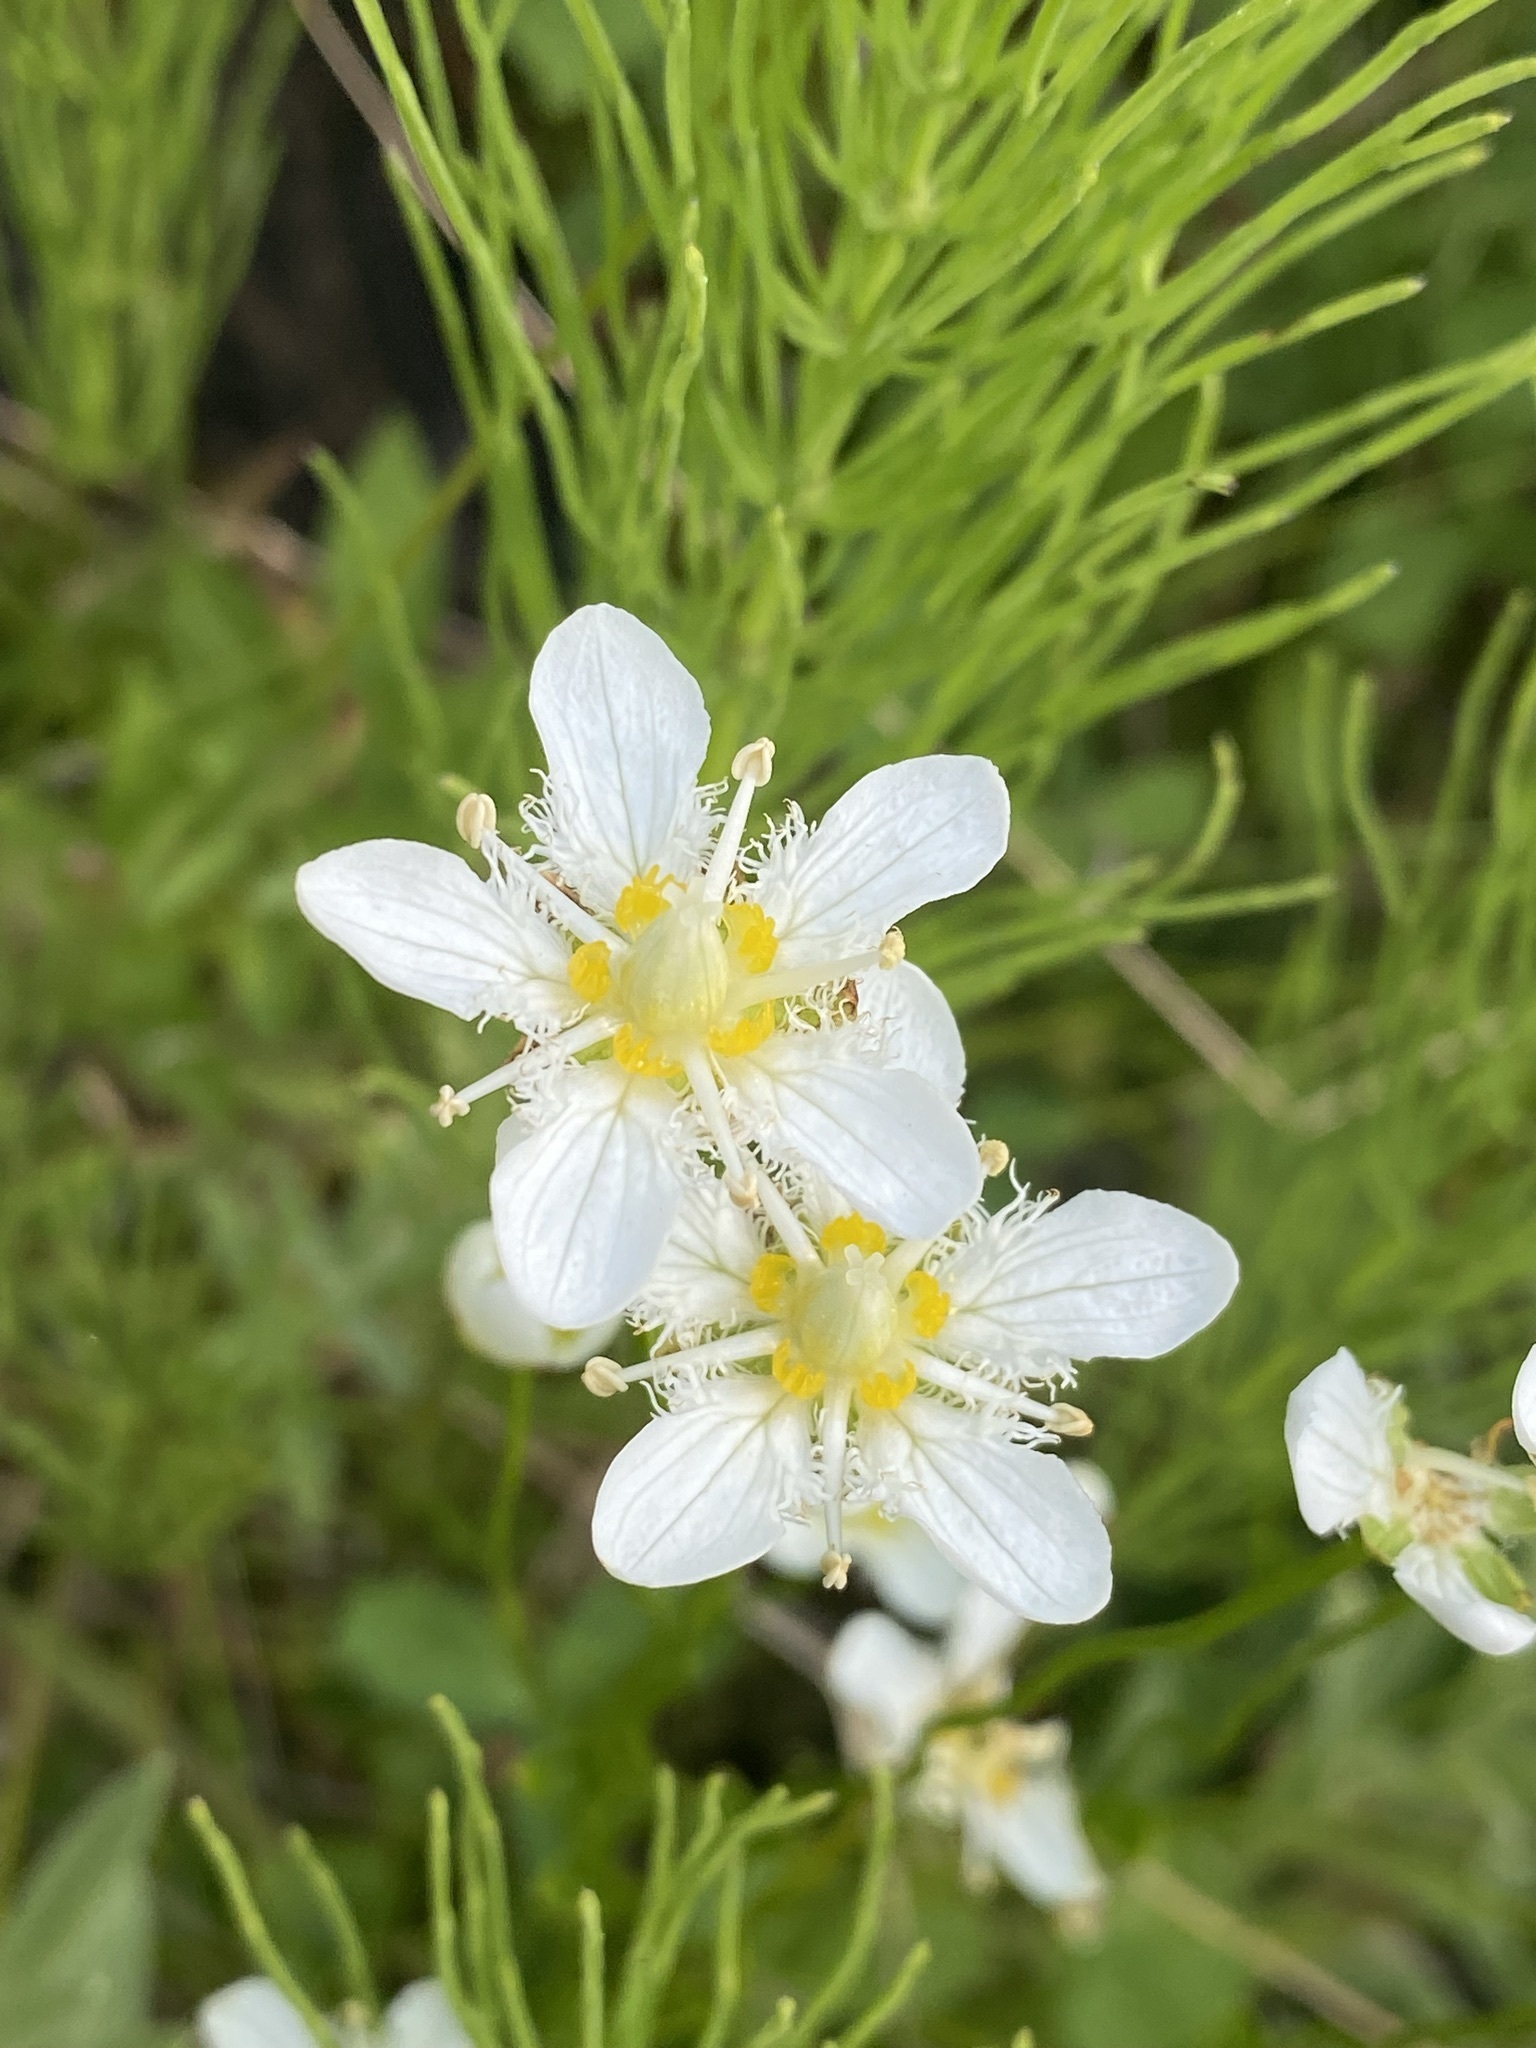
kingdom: Plantae
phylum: Tracheophyta
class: Magnoliopsida
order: Celastrales
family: Parnassiaceae
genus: Parnassia
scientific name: Parnassia fimbriata
